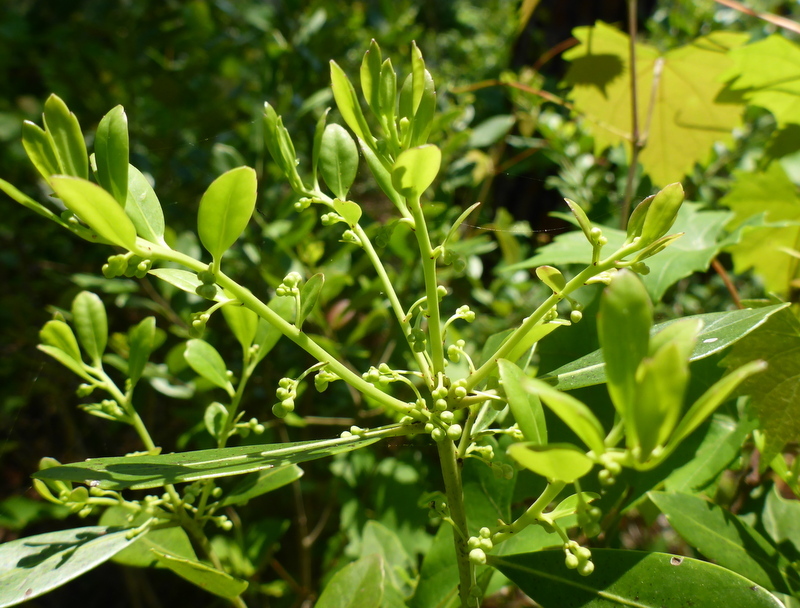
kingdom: Plantae
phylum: Tracheophyta
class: Magnoliopsida
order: Aquifoliales
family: Aquifoliaceae
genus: Ilex
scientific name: Ilex glabra
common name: Bitter gallberry
